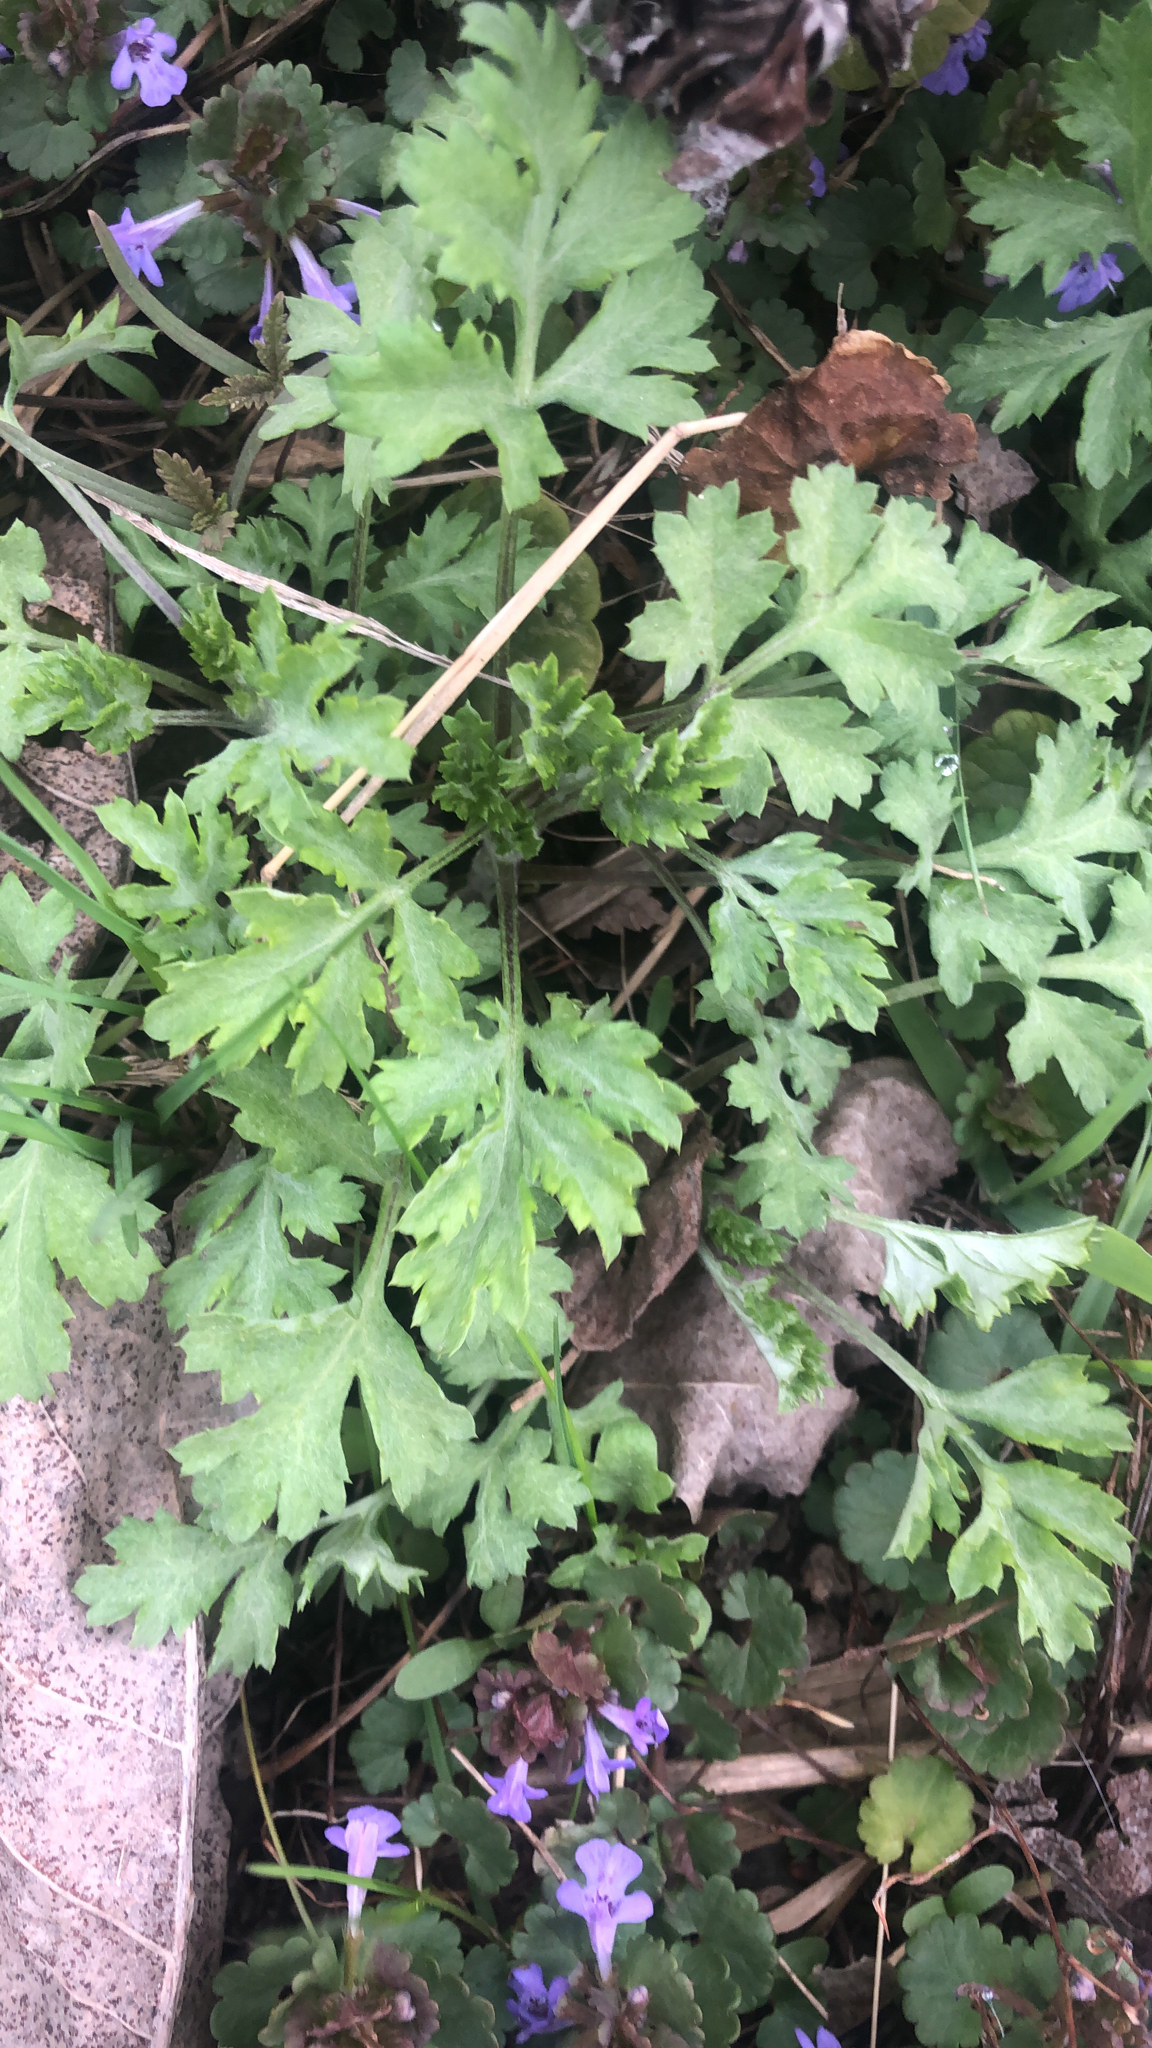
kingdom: Plantae
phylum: Tracheophyta
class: Magnoliopsida
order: Asterales
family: Asteraceae
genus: Artemisia
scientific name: Artemisia vulgaris
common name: Mugwort
